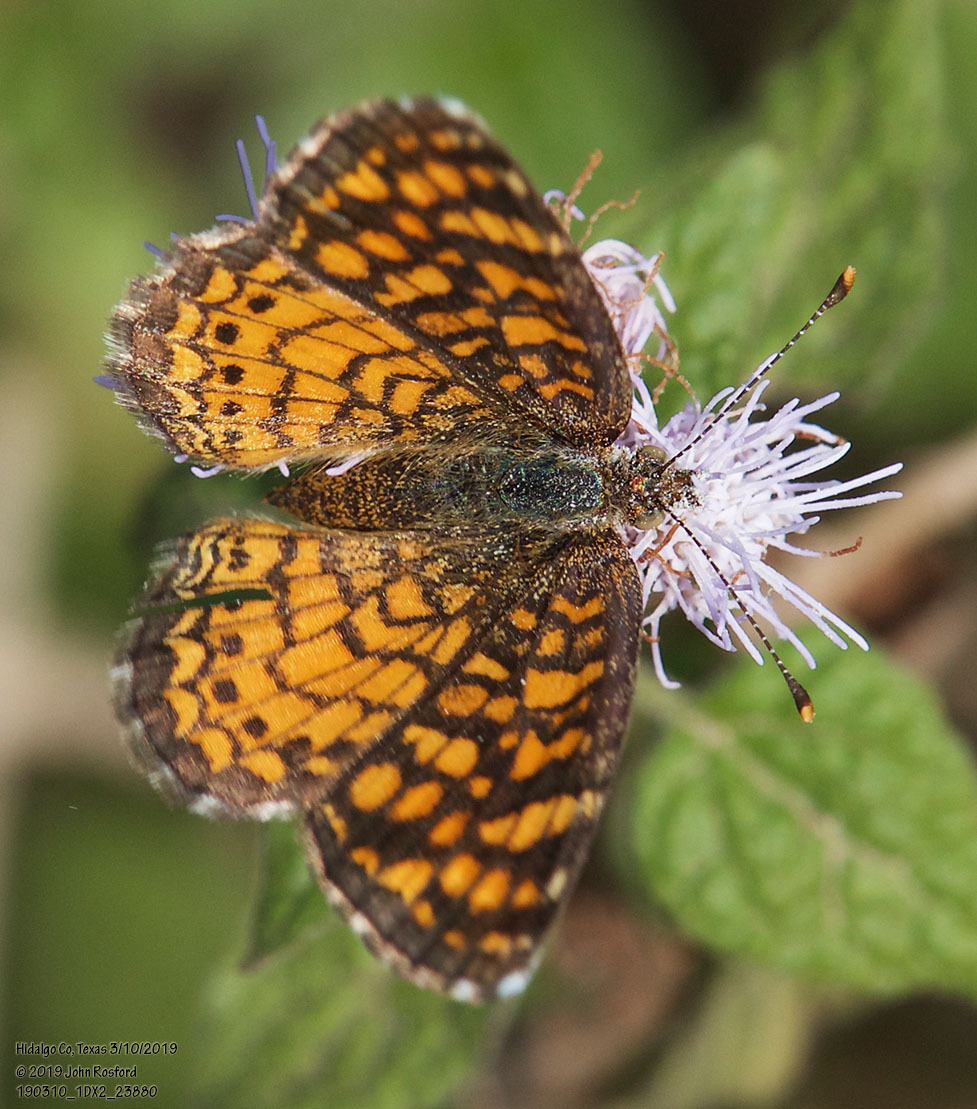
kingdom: Animalia
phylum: Arthropoda
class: Insecta
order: Lepidoptera
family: Nymphalidae
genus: Phyciodes
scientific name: Phyciodes vesta
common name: Vesta crescent
